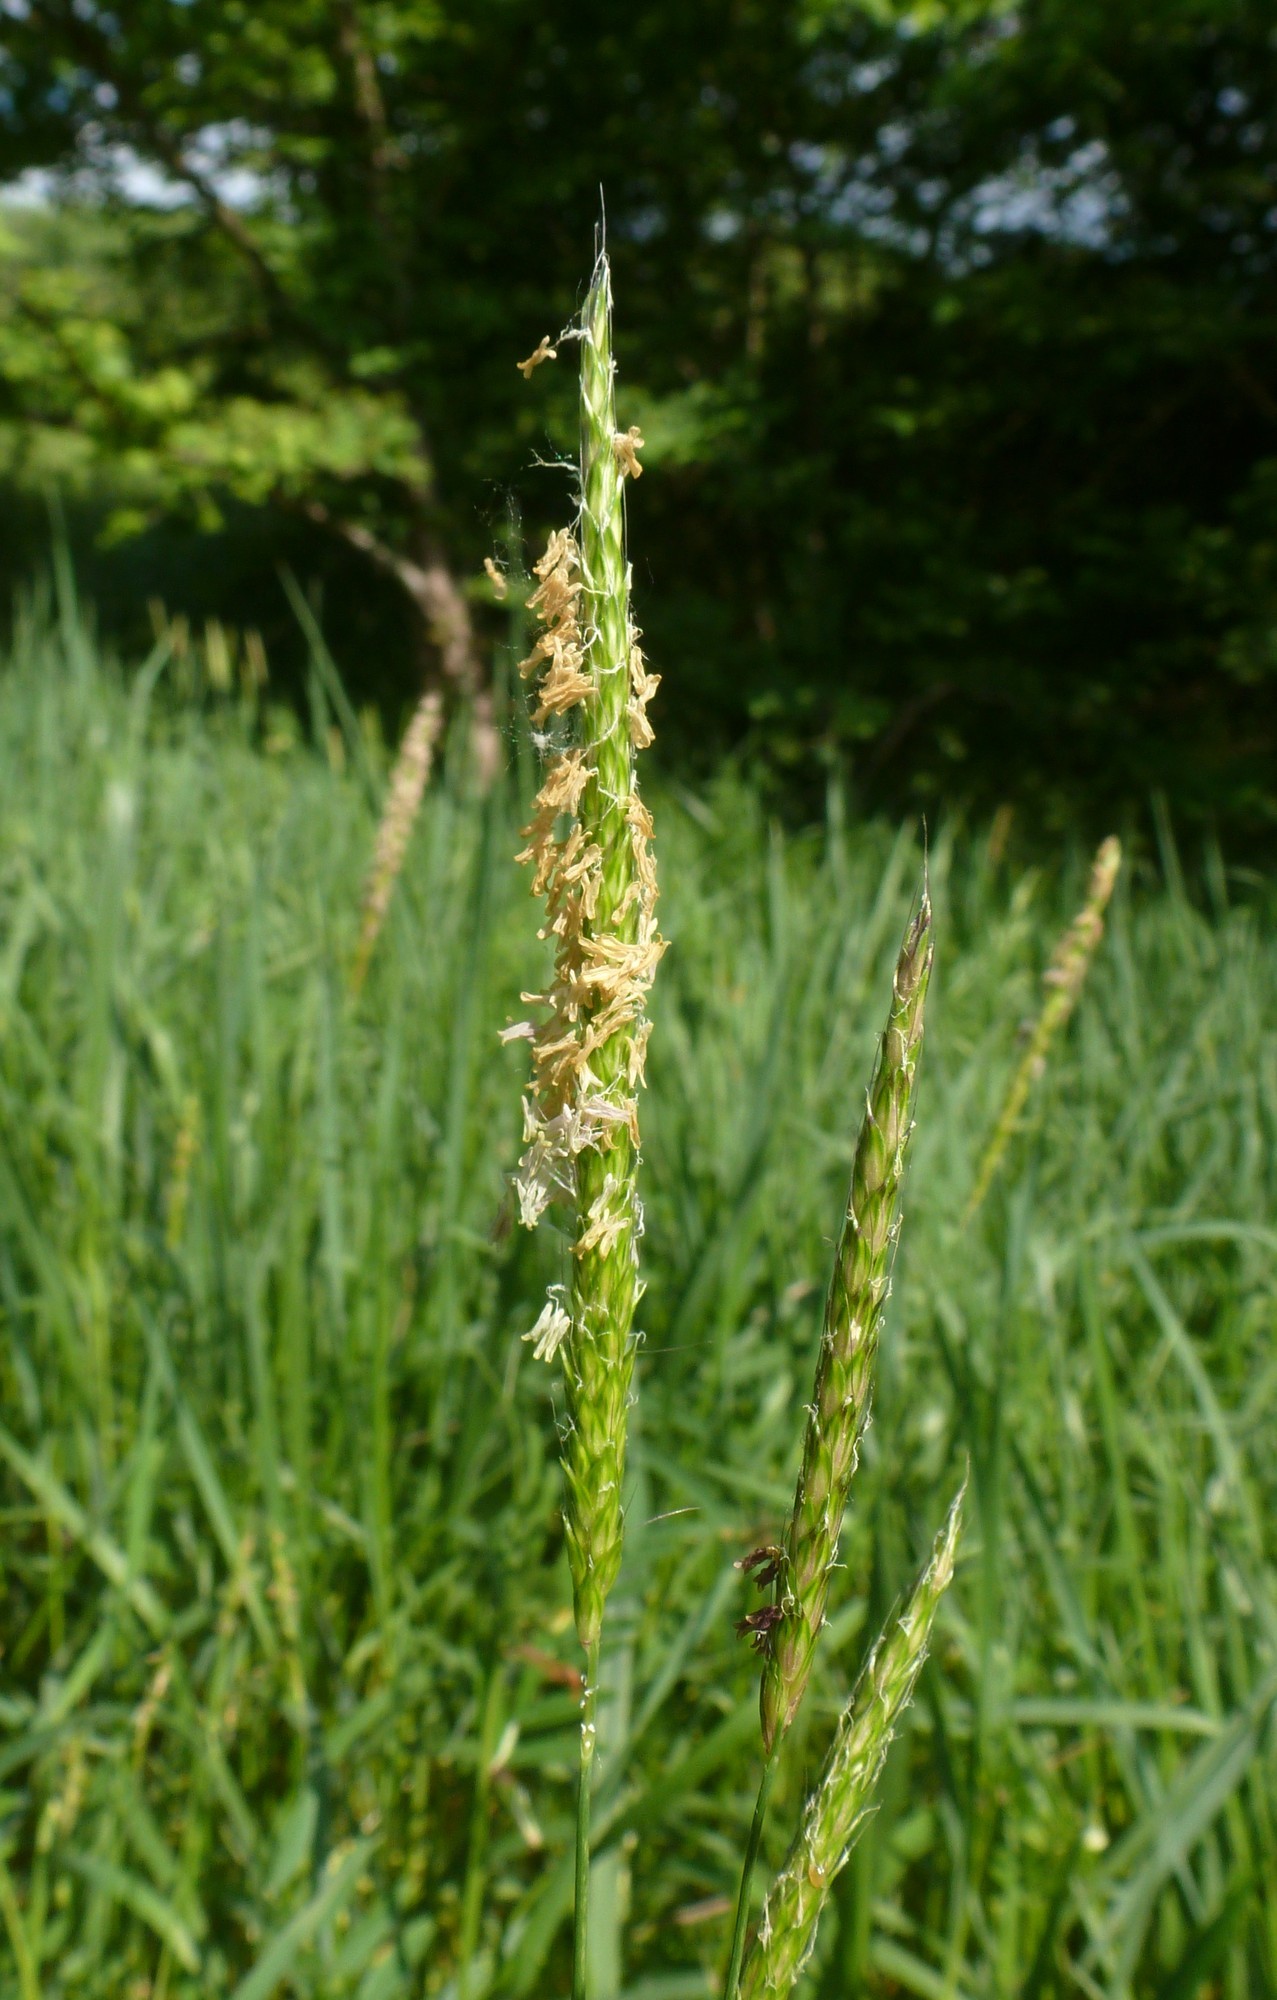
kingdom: Plantae
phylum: Tracheophyta
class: Liliopsida
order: Poales
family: Poaceae
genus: Alopecurus
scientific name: Alopecurus myosuroides
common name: Black-grass
